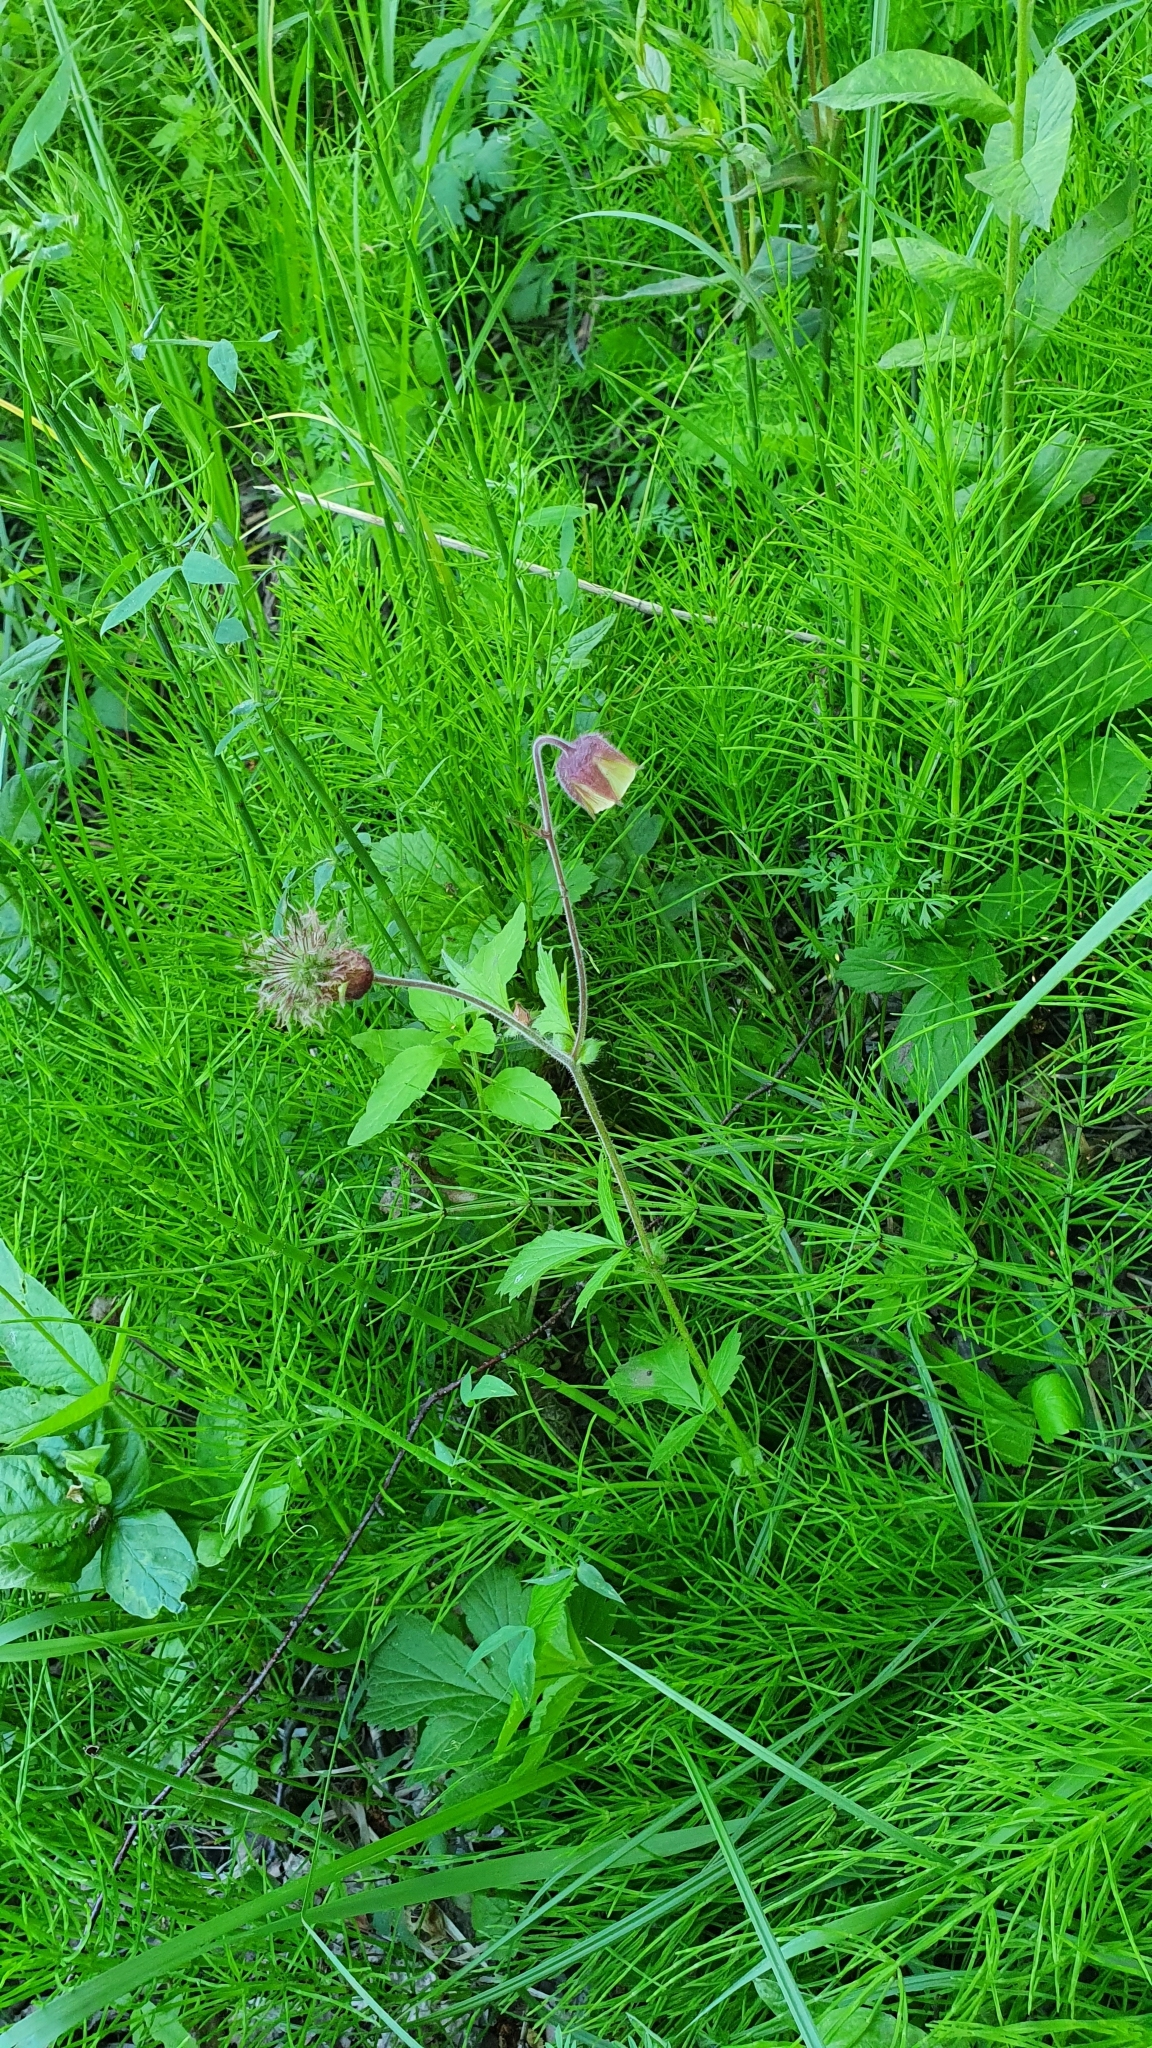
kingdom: Plantae
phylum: Tracheophyta
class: Magnoliopsida
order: Rosales
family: Rosaceae
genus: Geum
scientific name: Geum rivale
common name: Water avens
